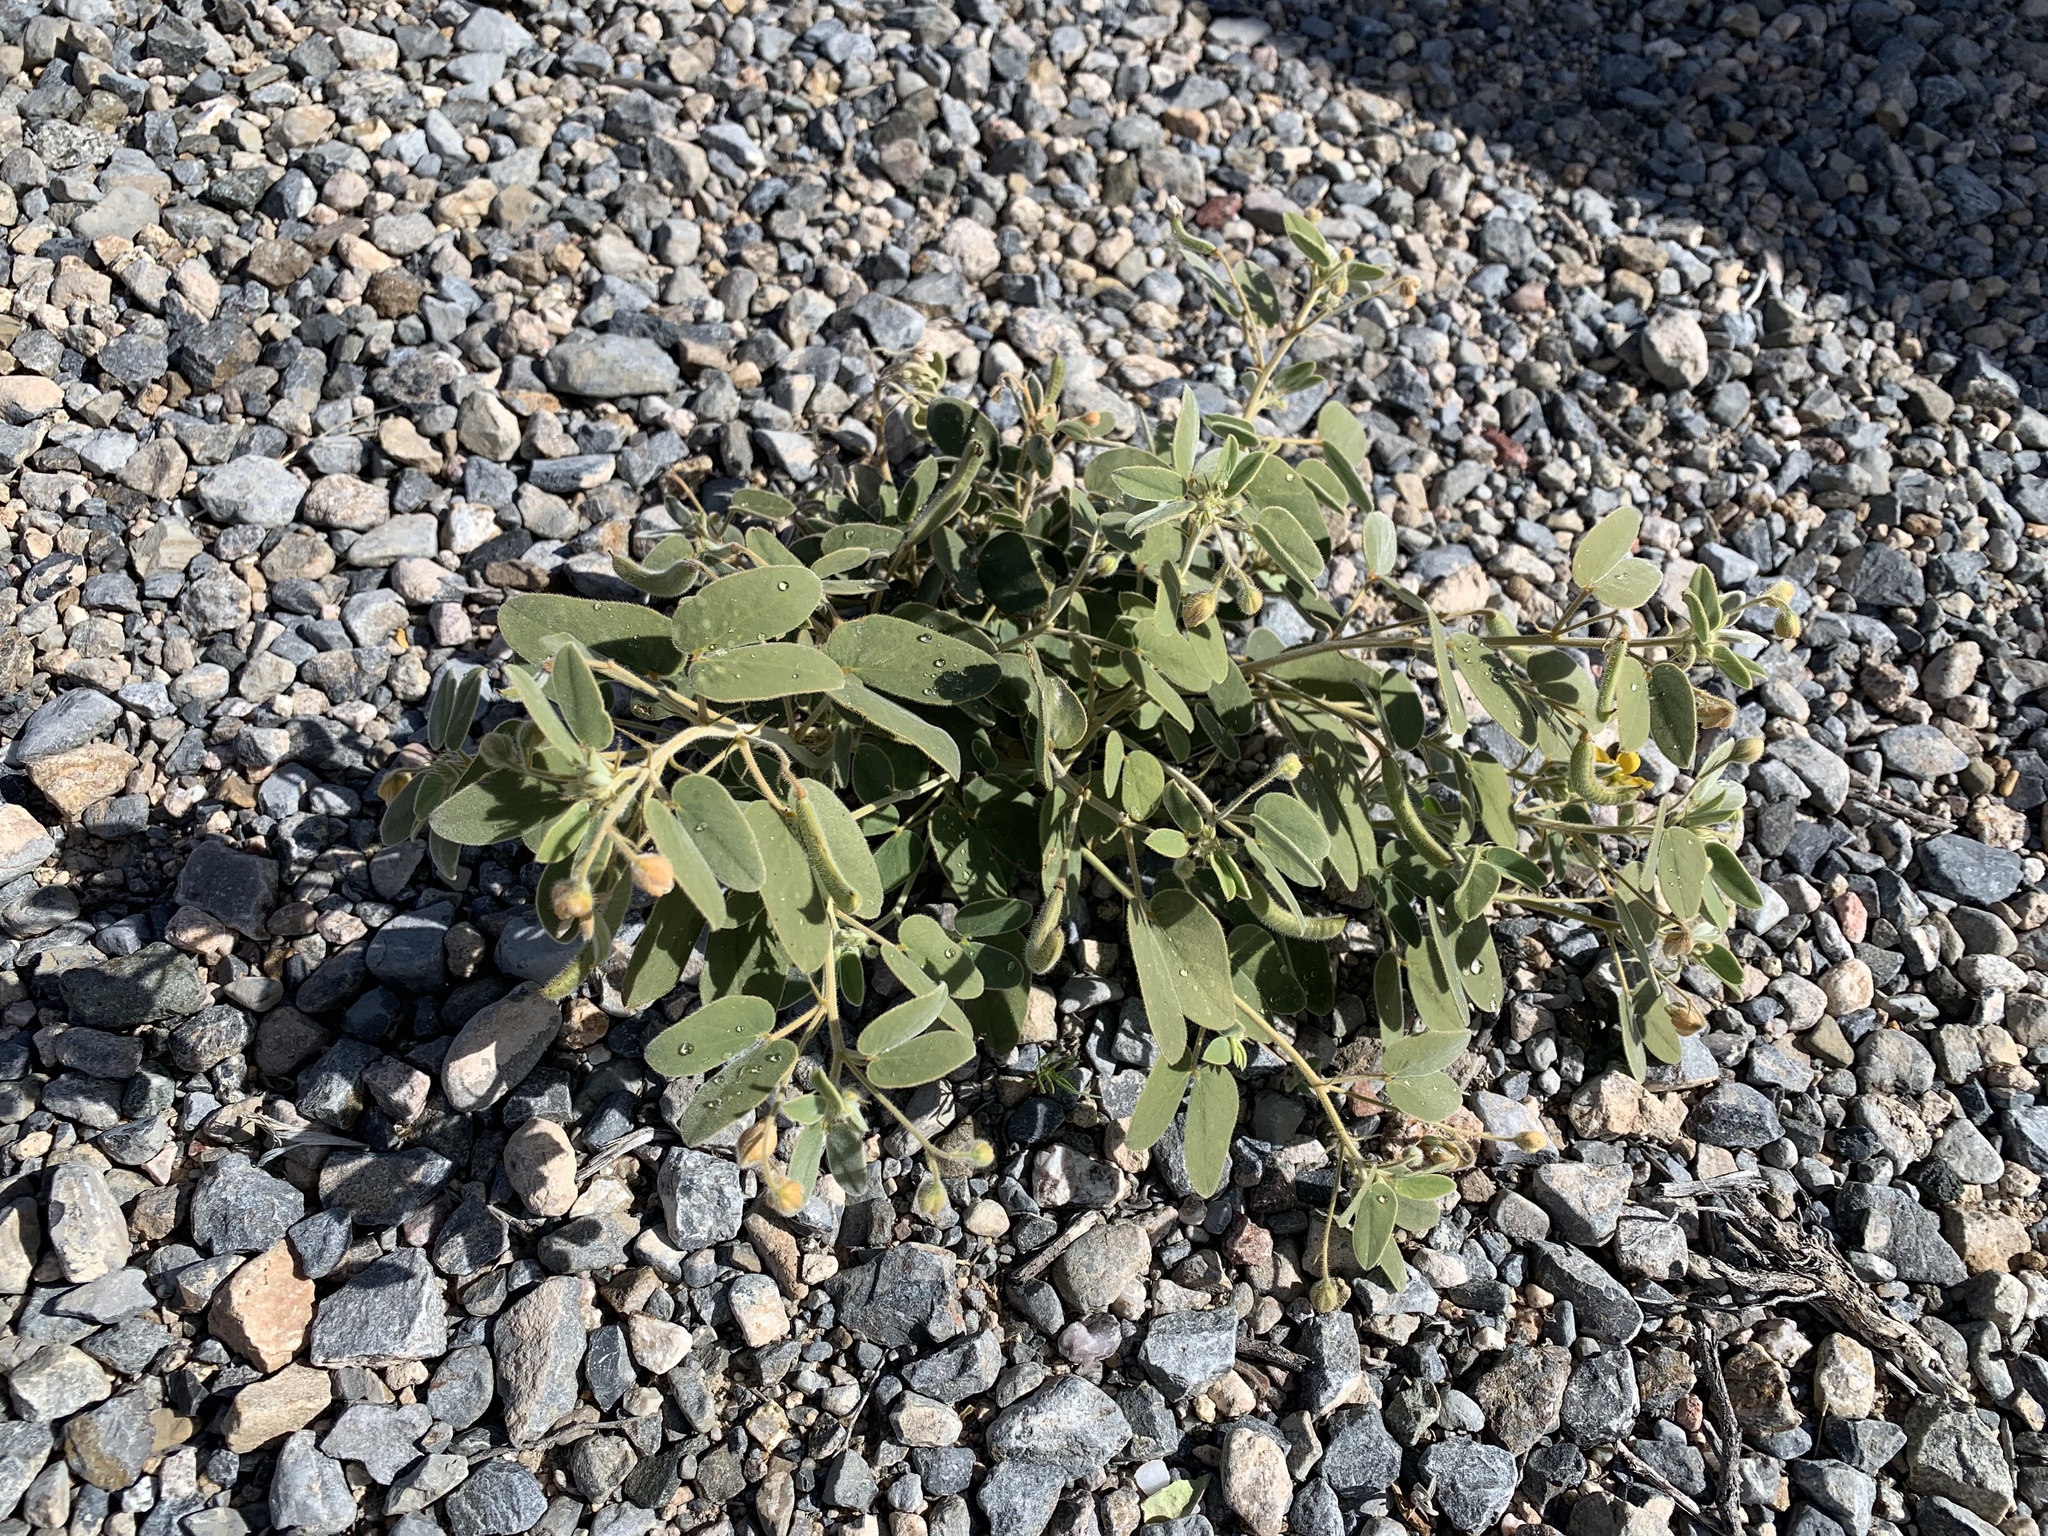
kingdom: Plantae
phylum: Tracheophyta
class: Magnoliopsida
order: Fabales
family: Fabaceae
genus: Senna
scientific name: Senna bauhinioides
